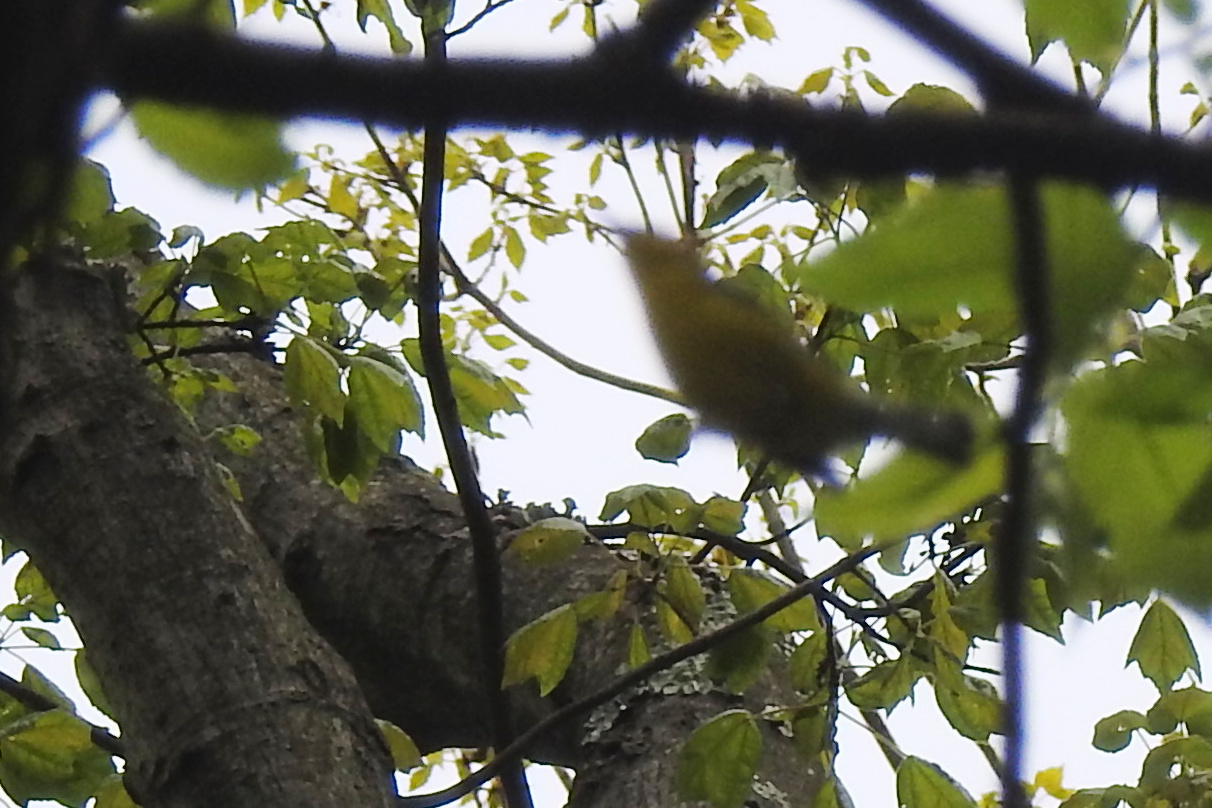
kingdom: Animalia
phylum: Chordata
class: Aves
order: Passeriformes
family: Parulidae
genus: Vermivora
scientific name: Vermivora cyanoptera
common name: Blue-winged warbler
